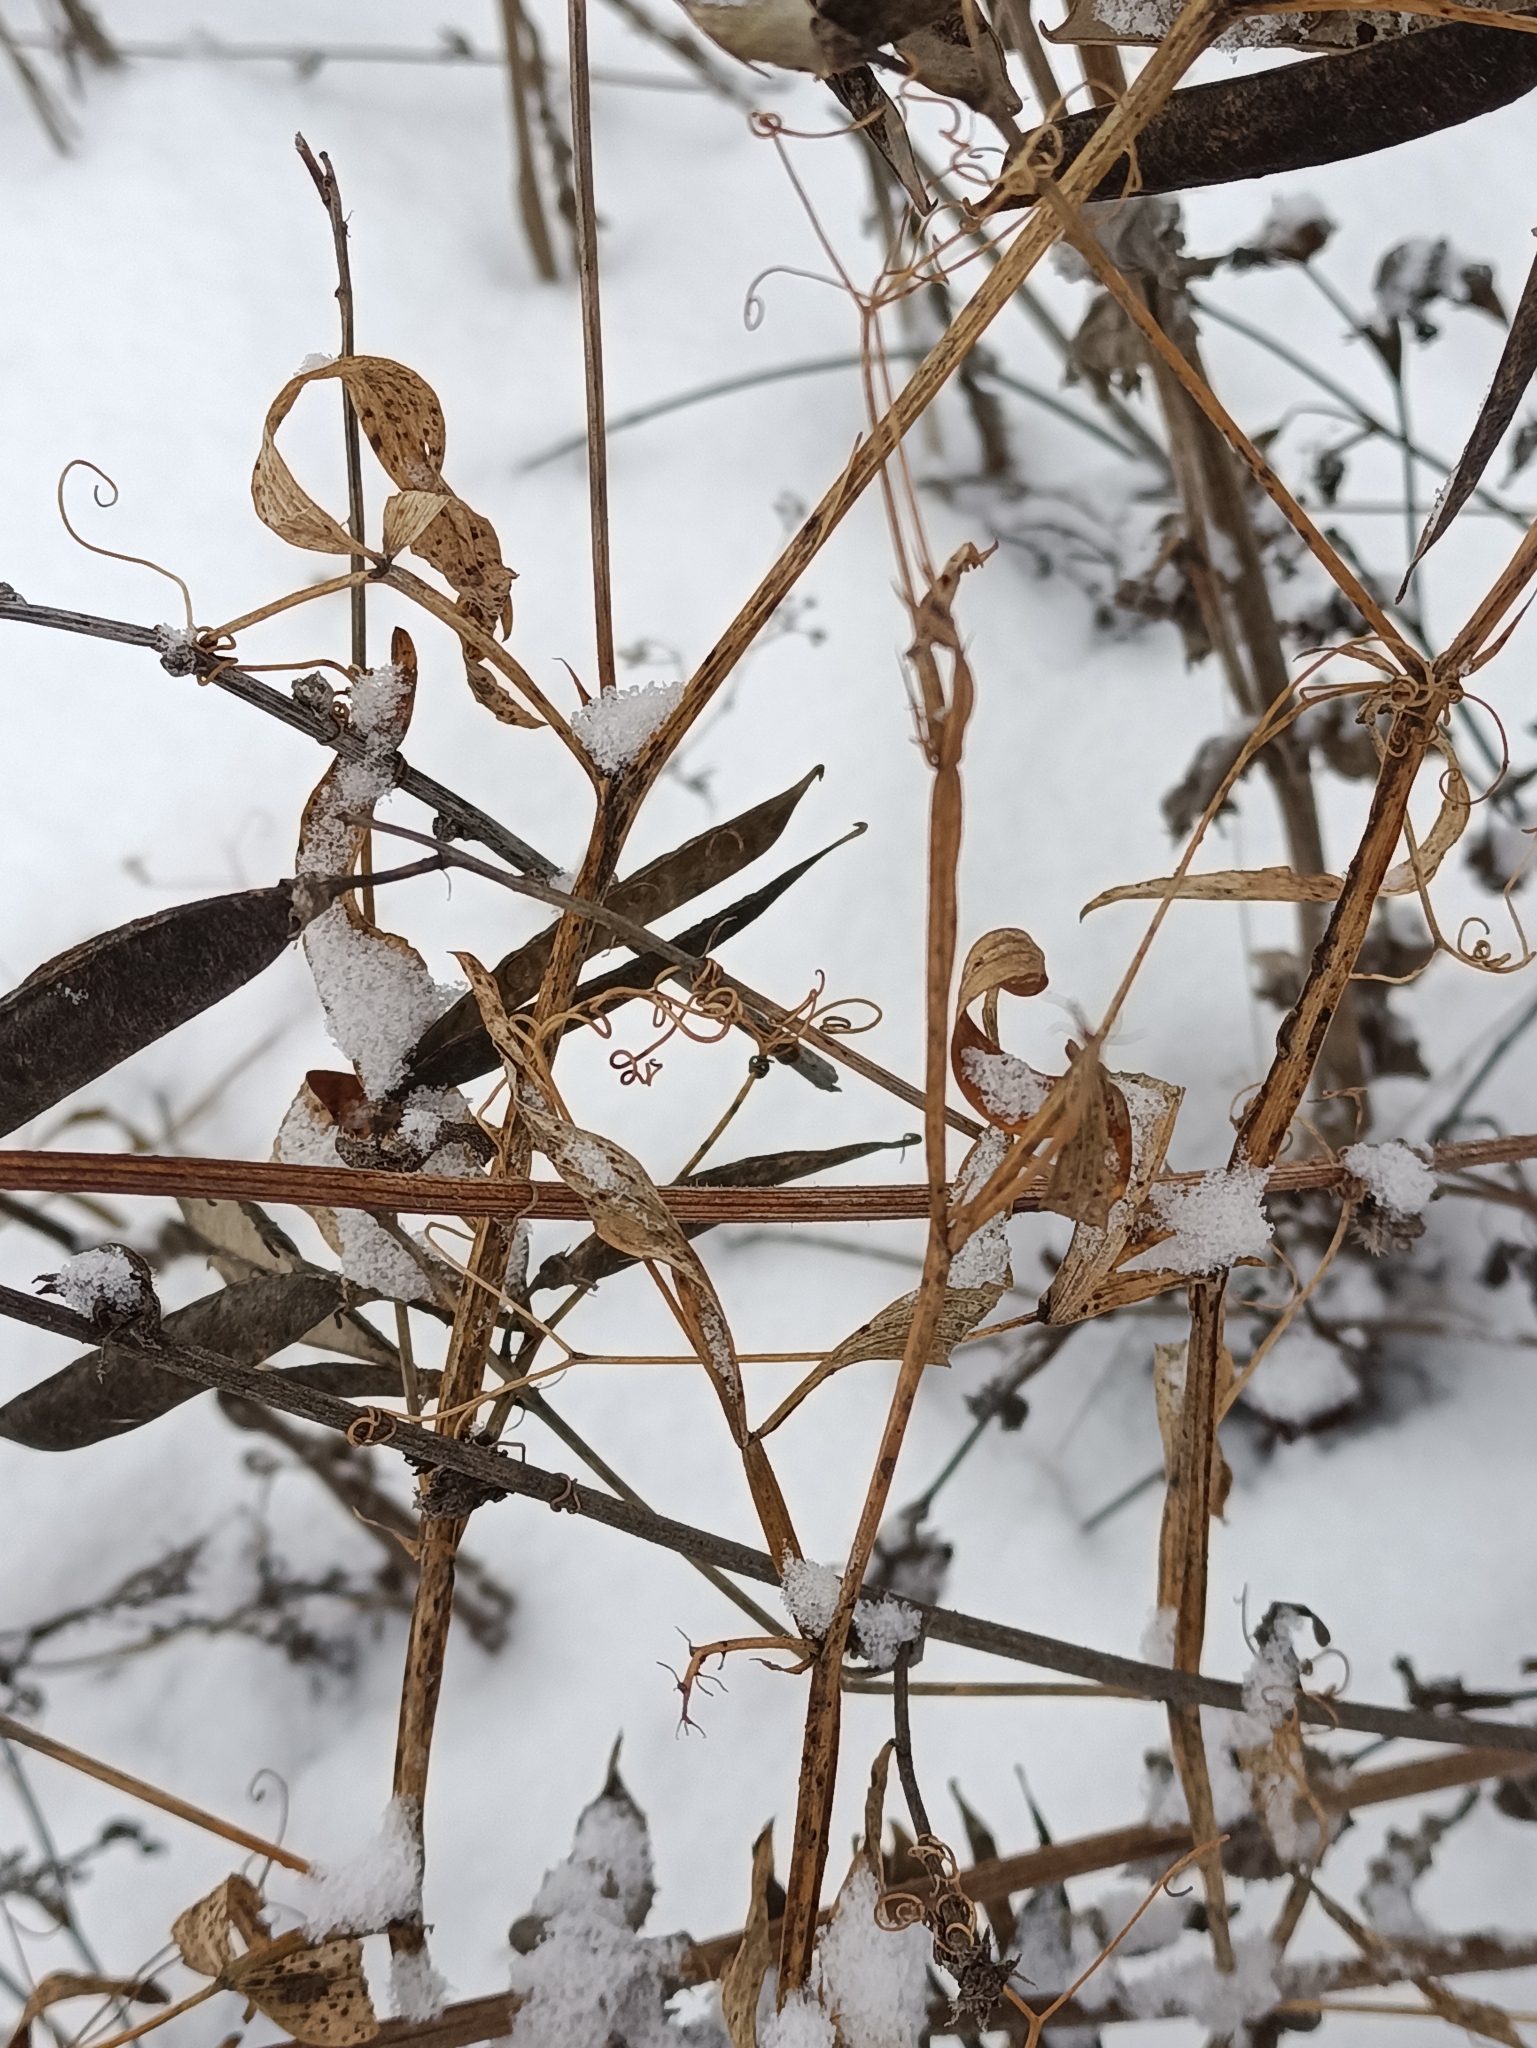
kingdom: Plantae
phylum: Tracheophyta
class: Magnoliopsida
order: Fabales
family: Fabaceae
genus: Lathyrus
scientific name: Lathyrus sylvestris
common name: Flat pea
